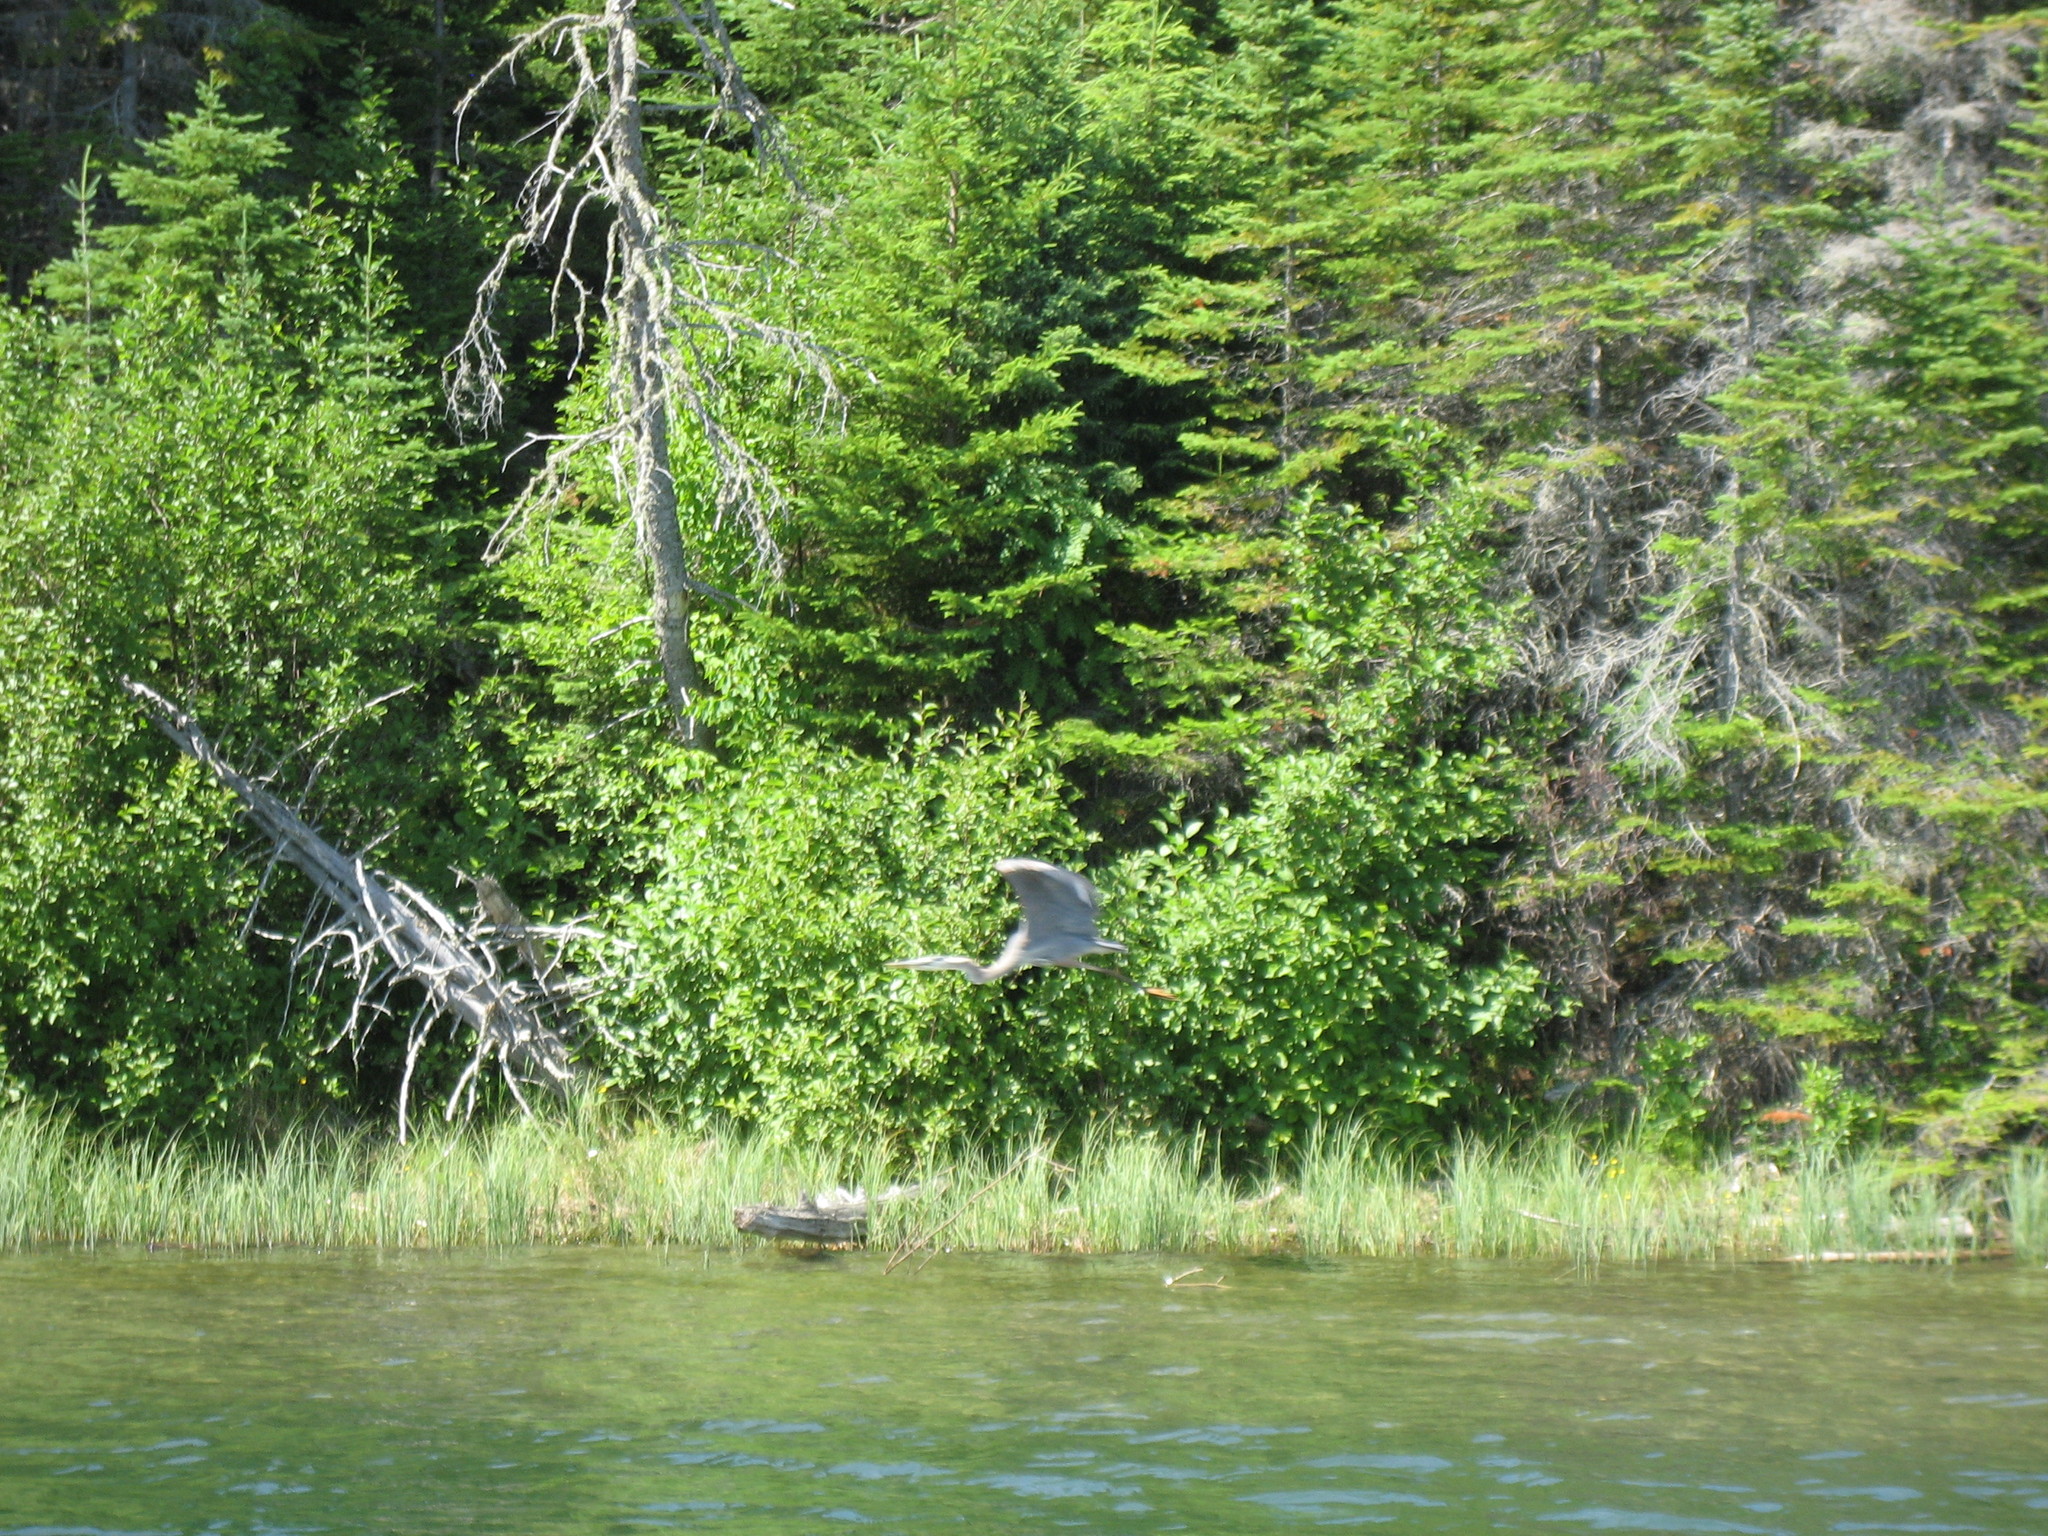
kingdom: Animalia
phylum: Chordata
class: Aves
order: Pelecaniformes
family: Ardeidae
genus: Ardea
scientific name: Ardea herodias
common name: Great blue heron
